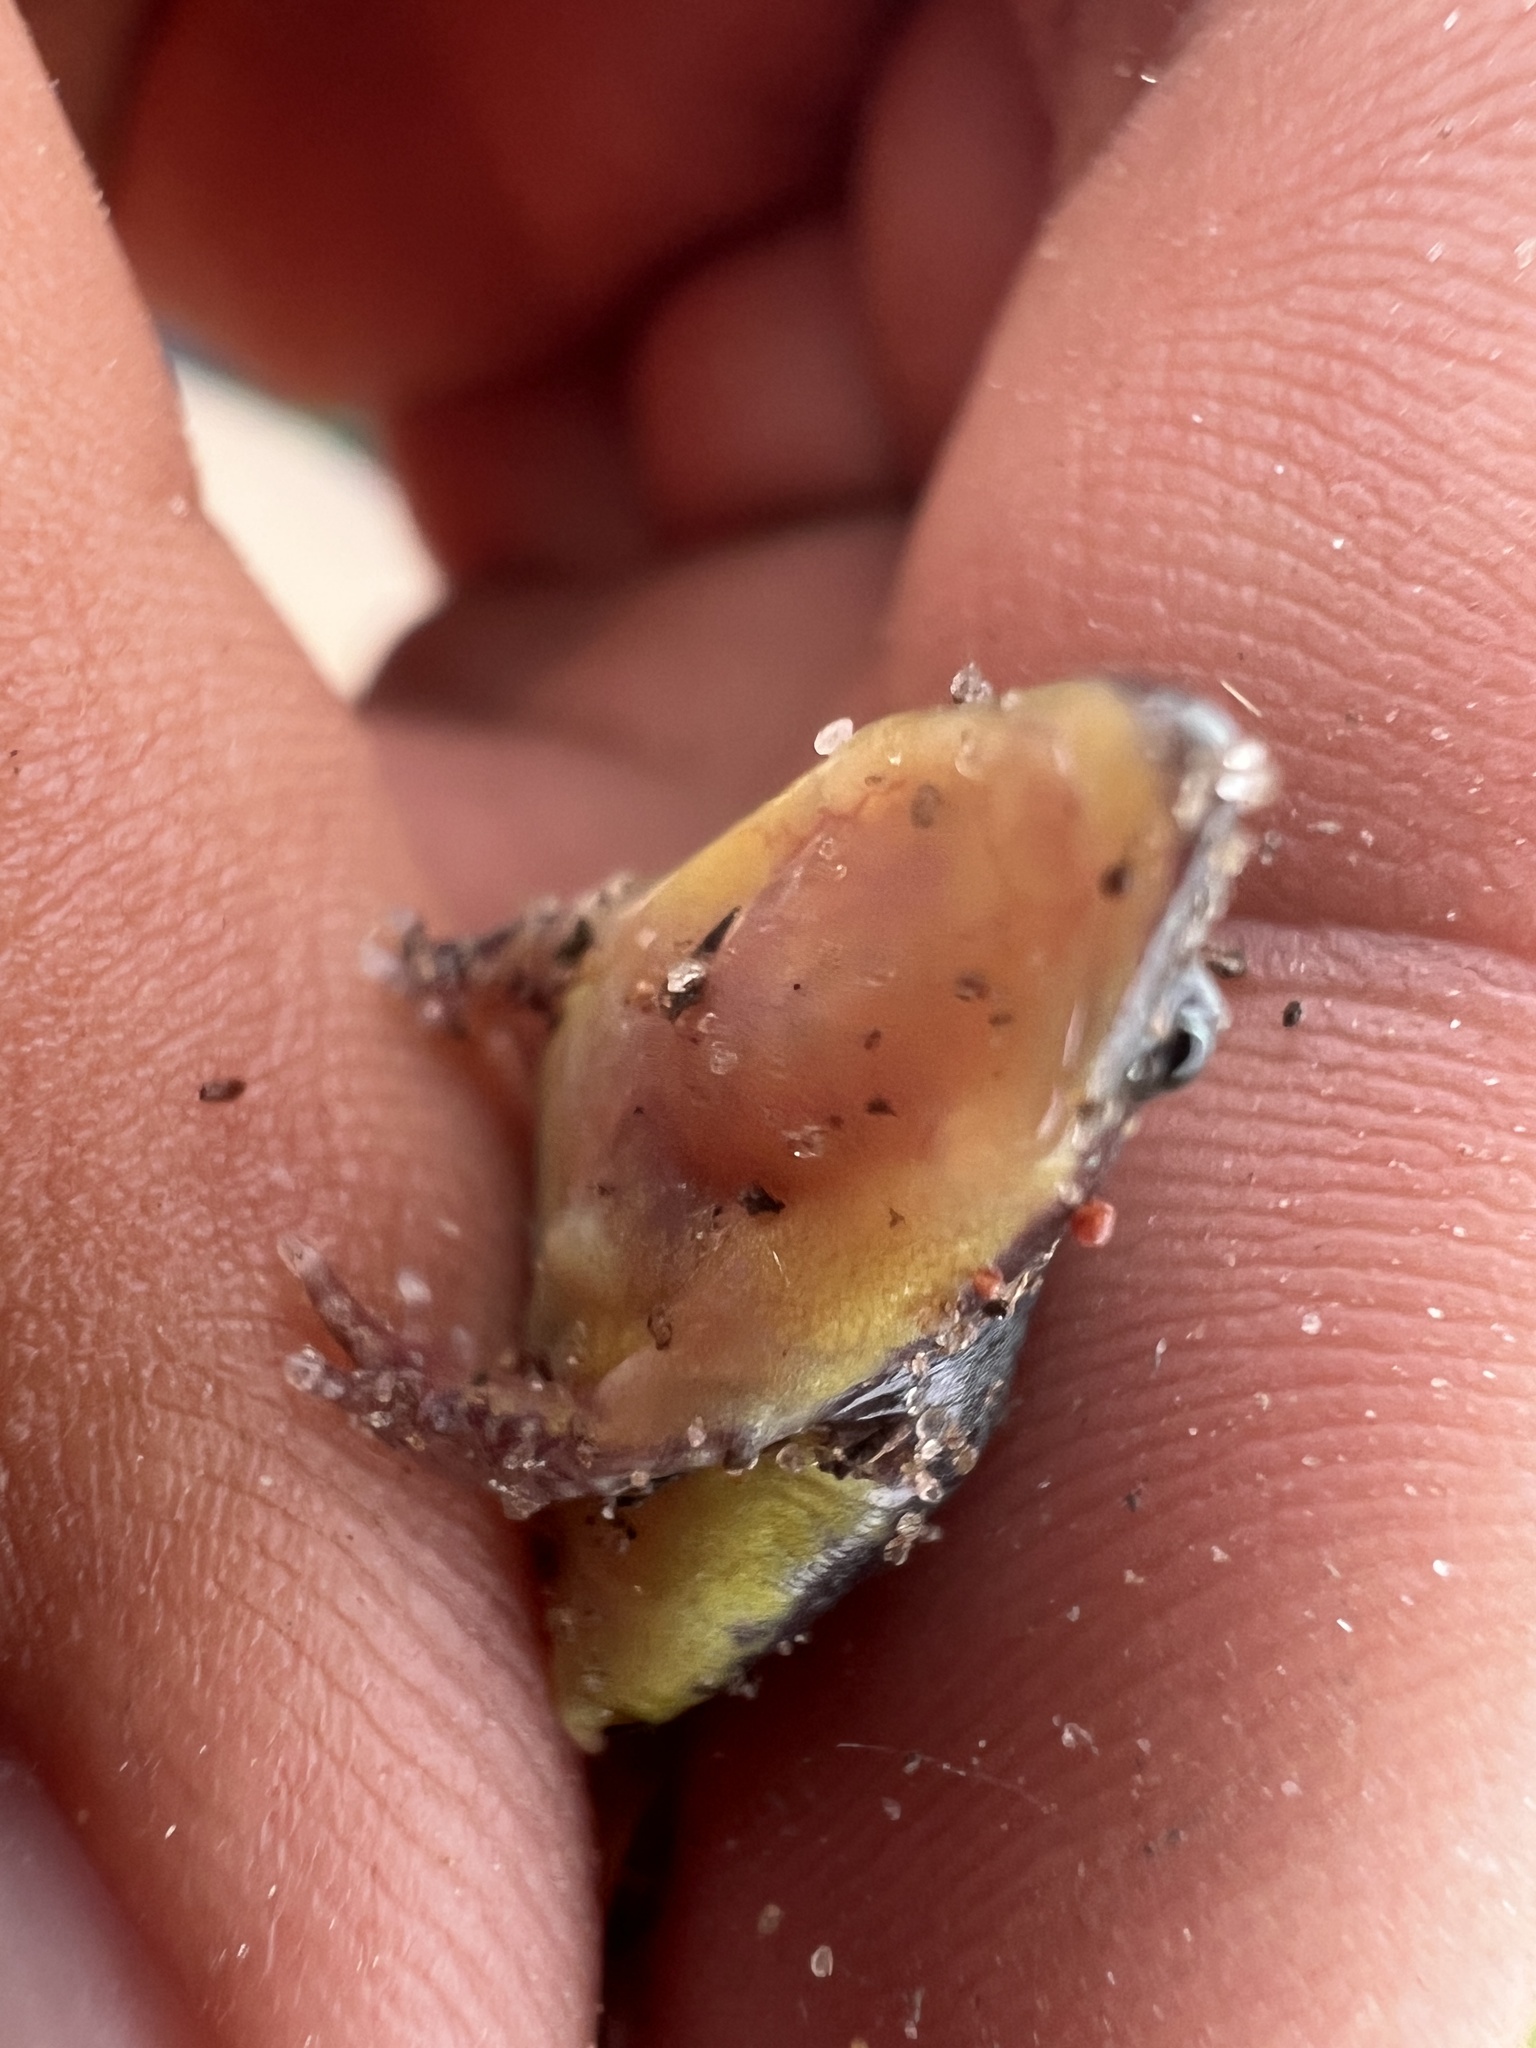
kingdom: Animalia
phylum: Chordata
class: Amphibia
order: Anura
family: Microhylidae
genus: Elachistocleis
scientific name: Elachistocleis bicolor
